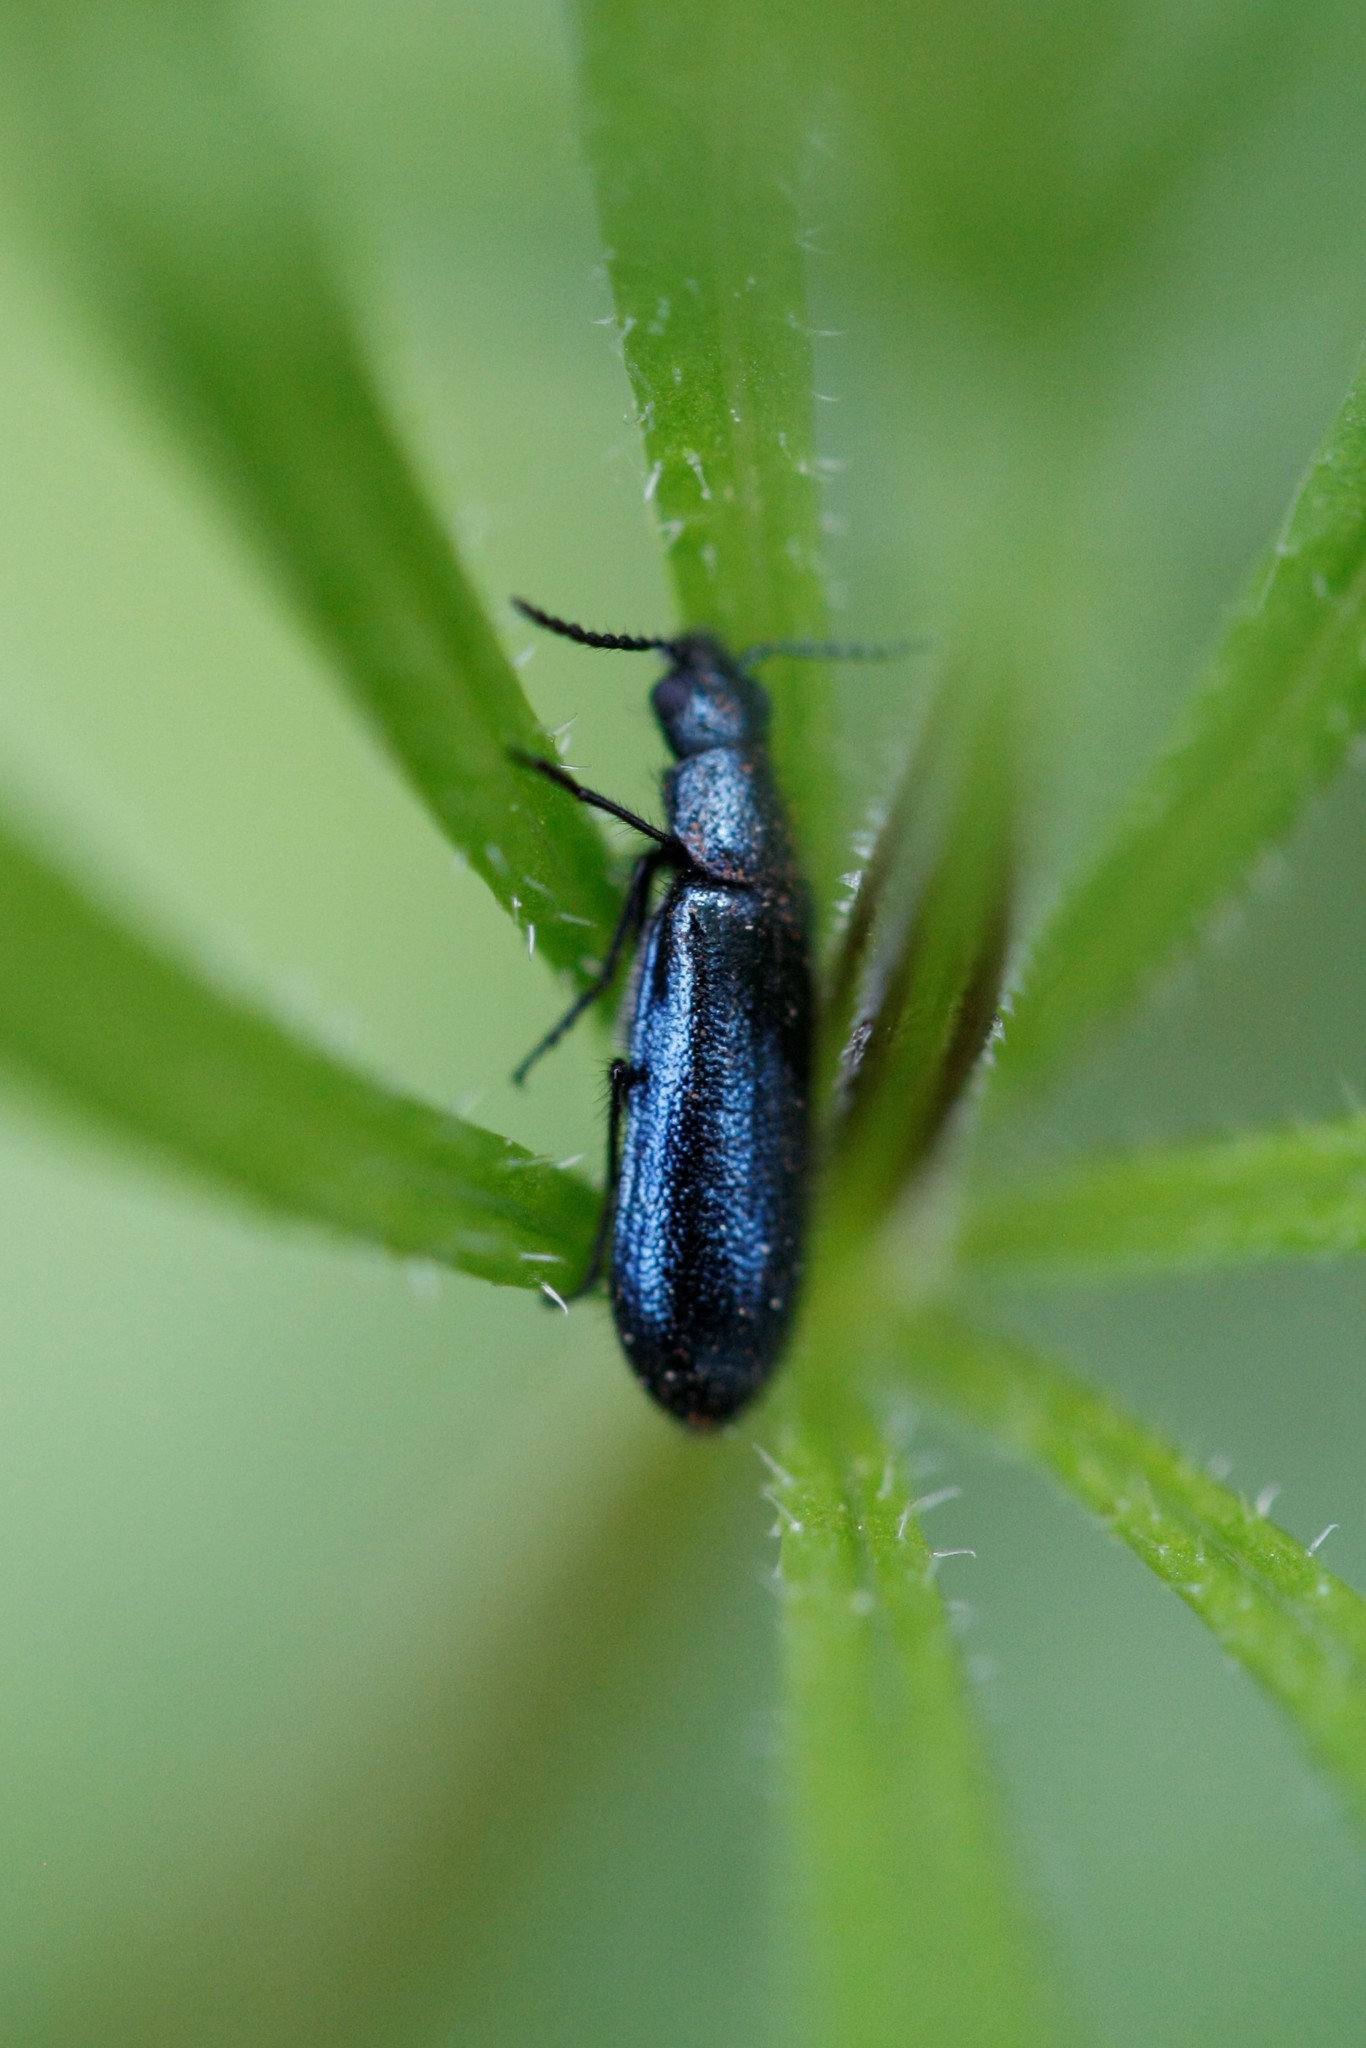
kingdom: Animalia
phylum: Arthropoda
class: Insecta
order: Coleoptera
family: Melyridae
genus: Dasytes
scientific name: Dasytes caeruleus
